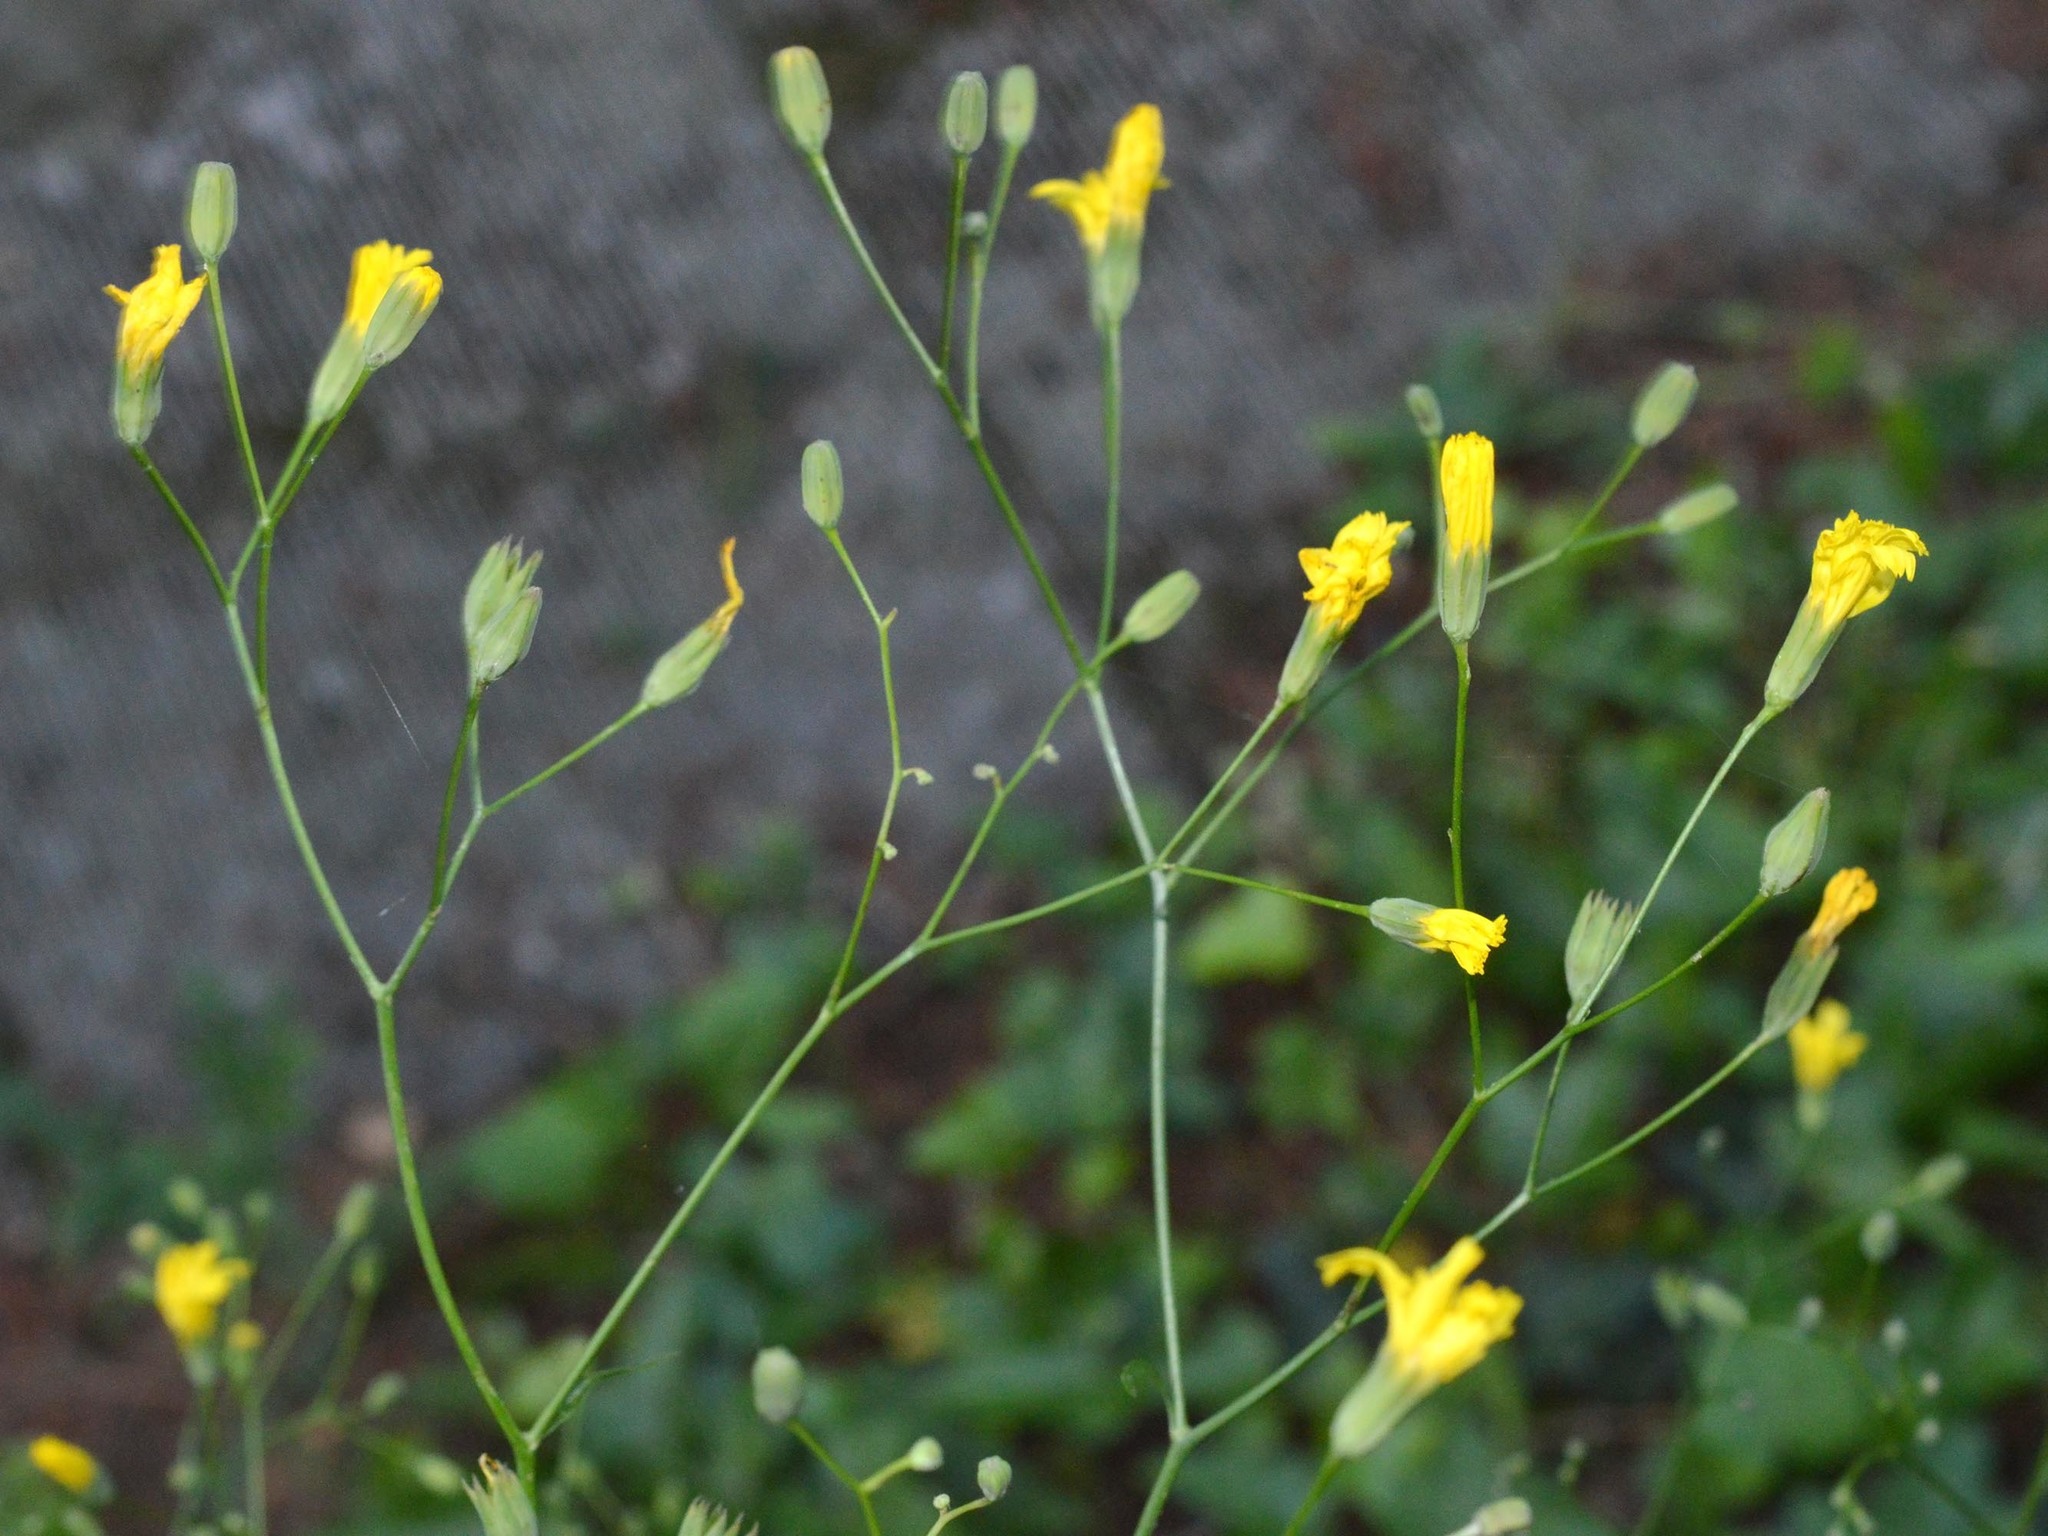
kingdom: Plantae
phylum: Tracheophyta
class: Magnoliopsida
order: Asterales
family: Asteraceae
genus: Lapsana
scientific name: Lapsana communis
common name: Nipplewort
